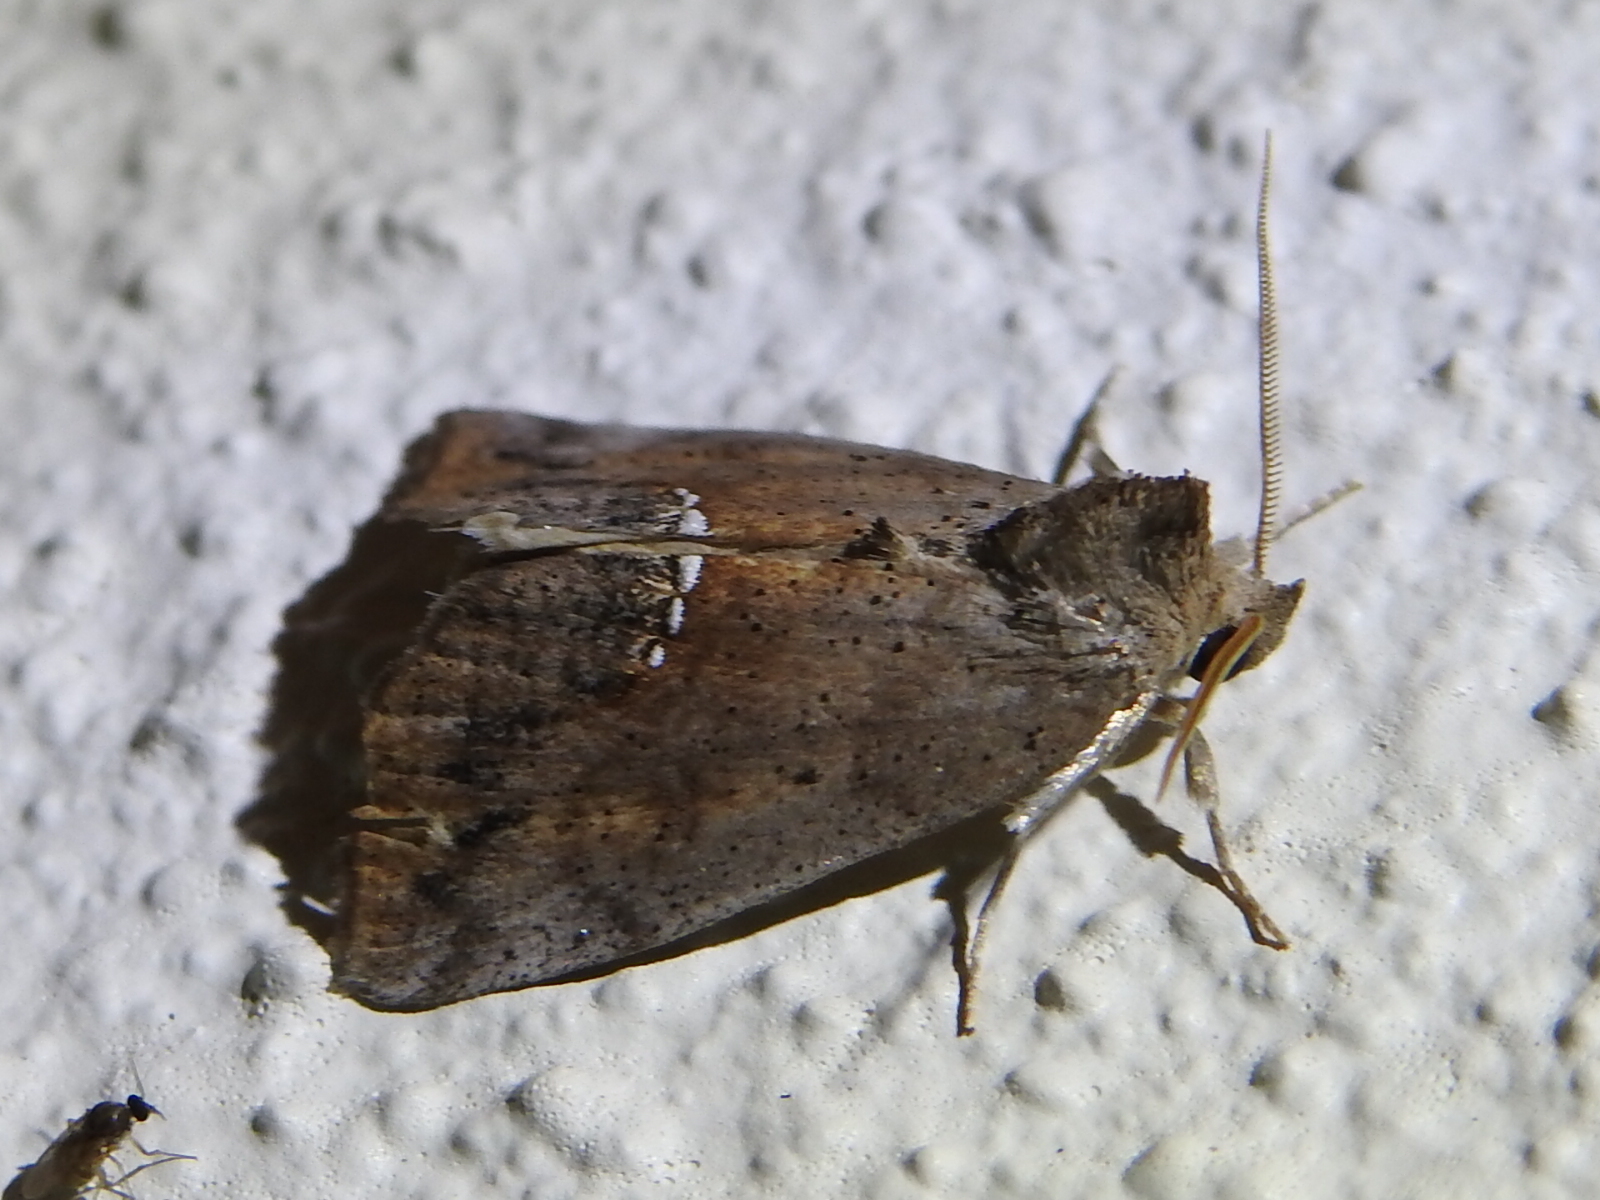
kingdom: Animalia
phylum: Arthropoda
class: Insecta
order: Lepidoptera
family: Erebidae
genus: Hypsoropha
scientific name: Hypsoropha hormos
